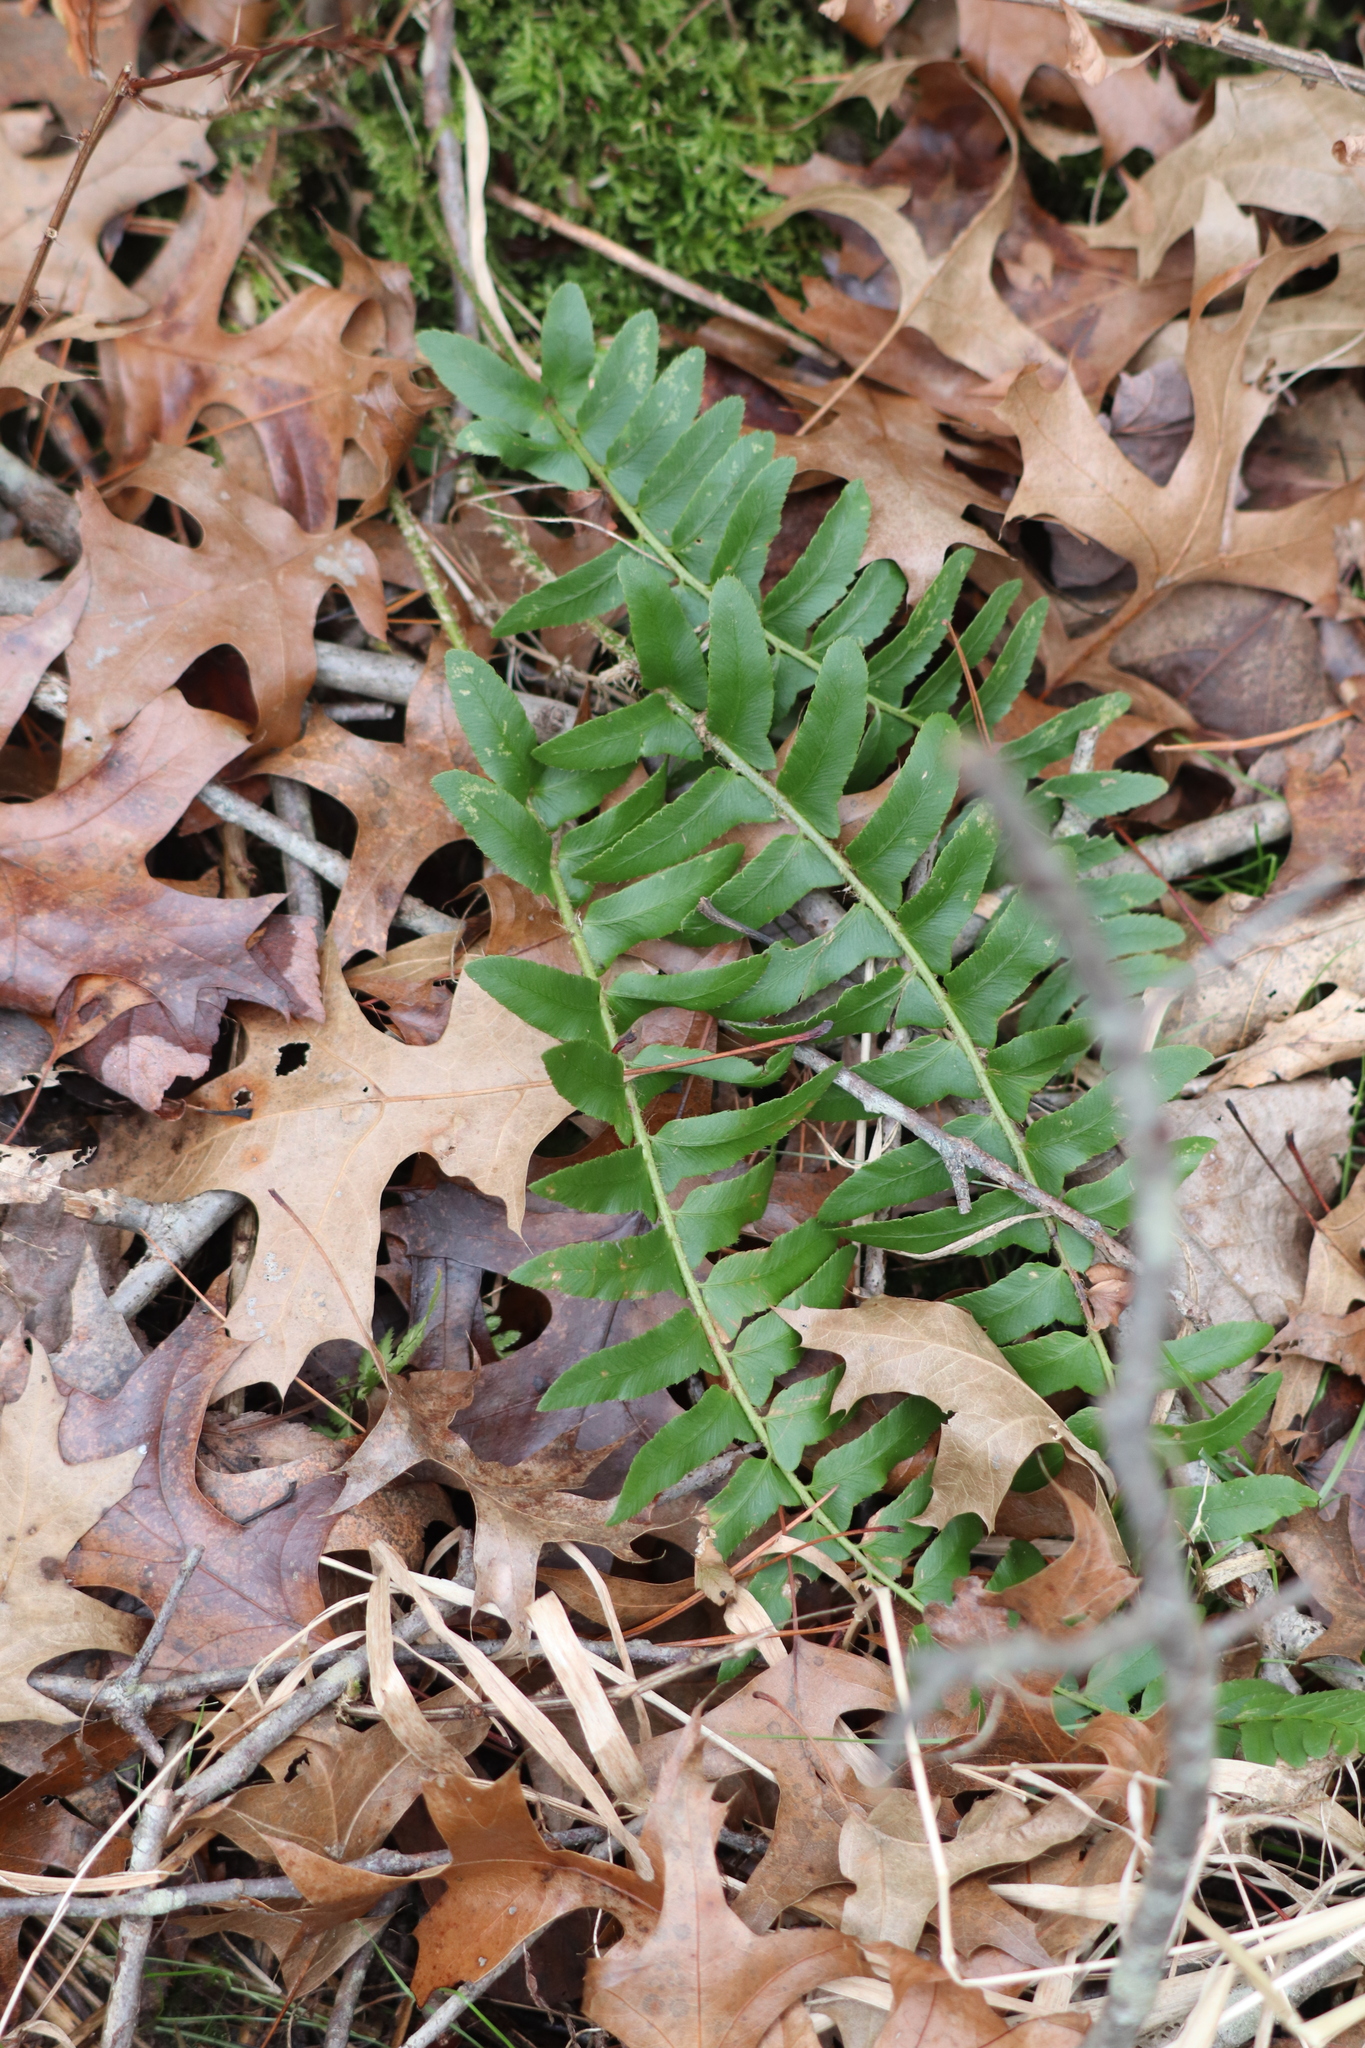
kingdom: Plantae
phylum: Tracheophyta
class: Polypodiopsida
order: Polypodiales
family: Dryopteridaceae
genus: Polystichum
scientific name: Polystichum acrostichoides
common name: Christmas fern
